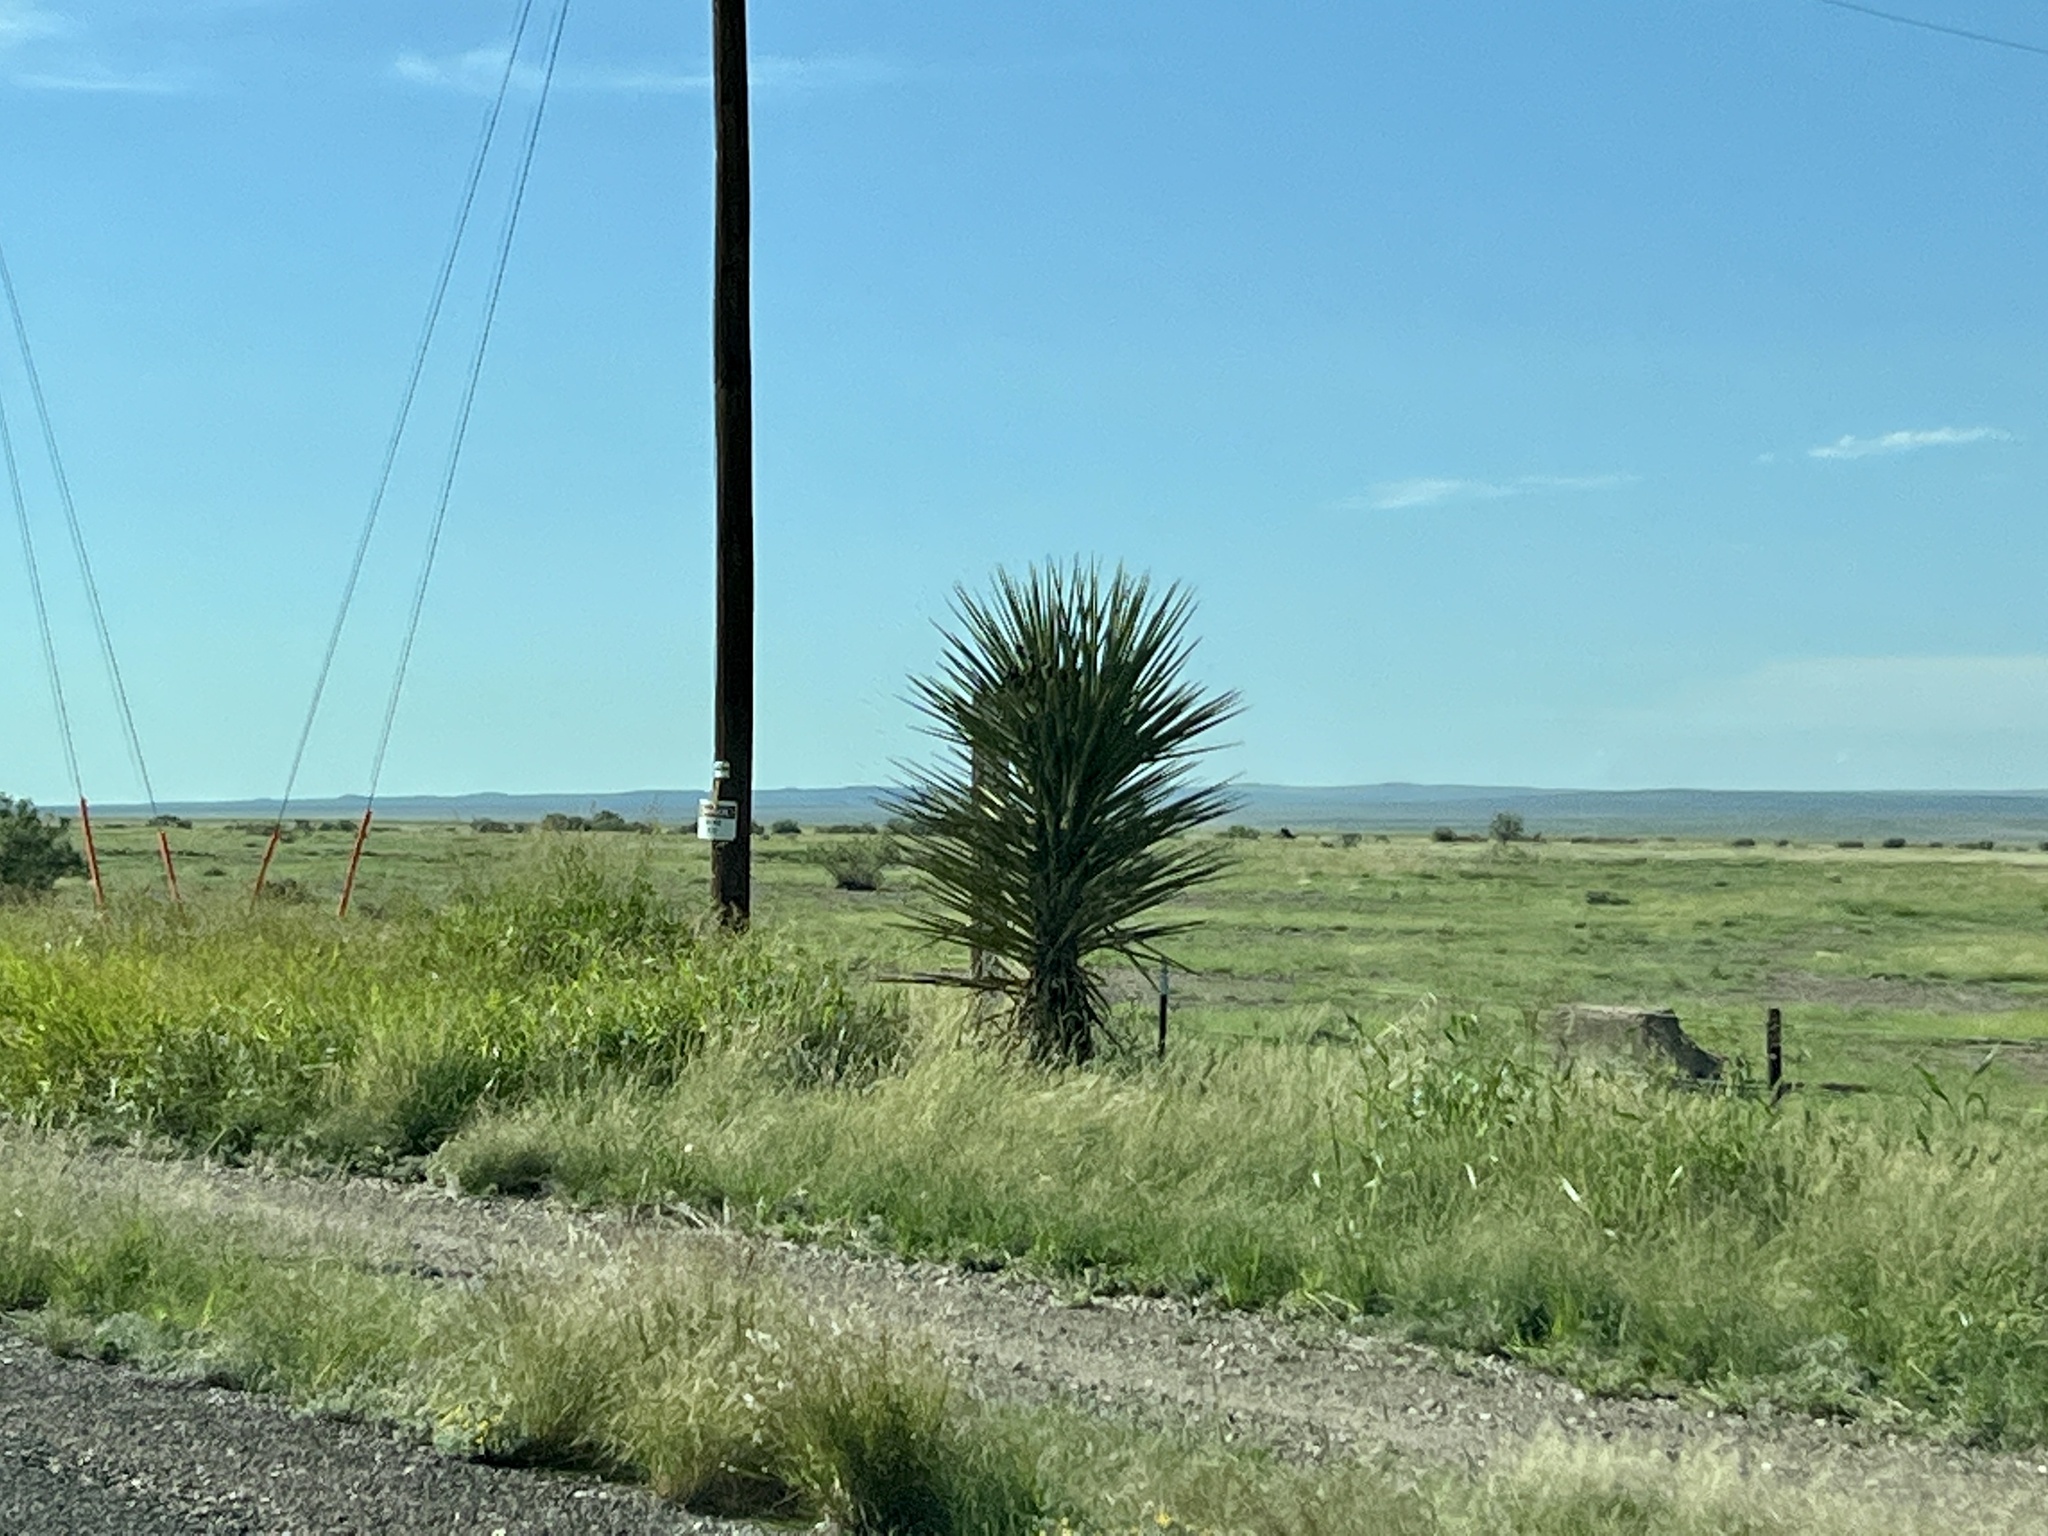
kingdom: Plantae
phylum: Tracheophyta
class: Liliopsida
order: Asparagales
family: Asparagaceae
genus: Yucca
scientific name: Yucca treculiana
